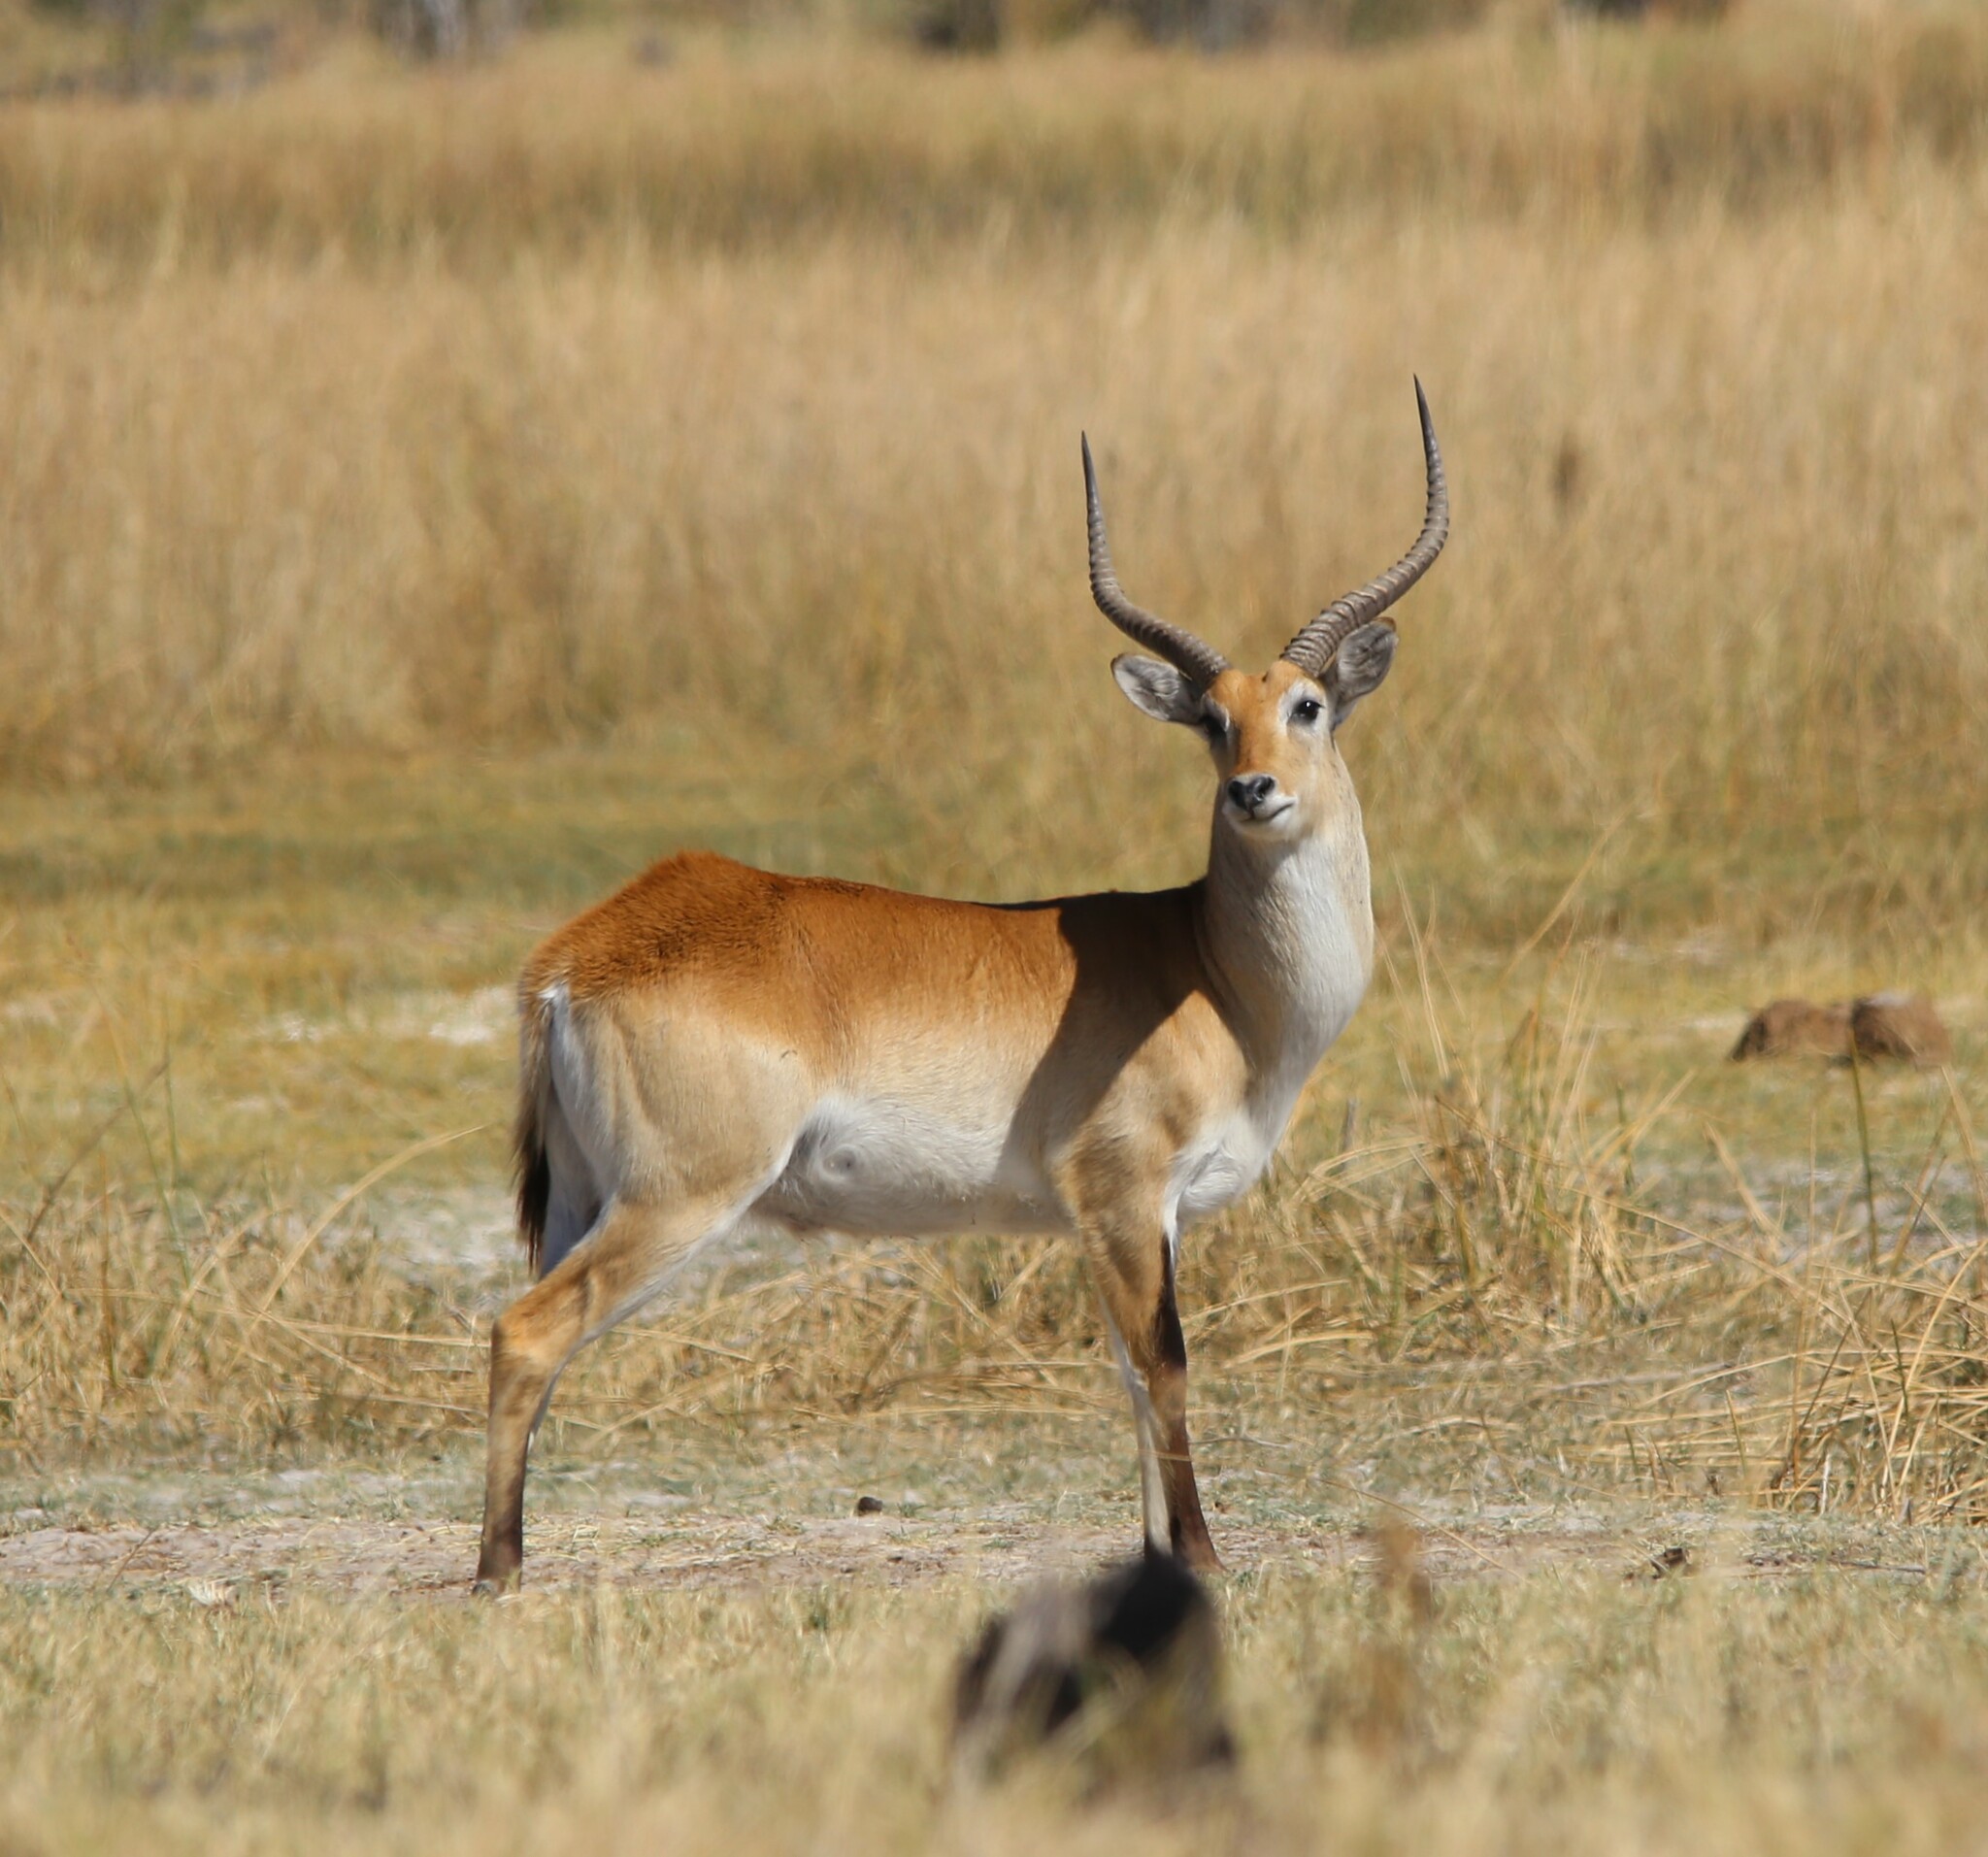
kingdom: Animalia
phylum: Chordata
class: Mammalia
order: Artiodactyla
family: Bovidae
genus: Kobus
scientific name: Kobus leche
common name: Lechwe
